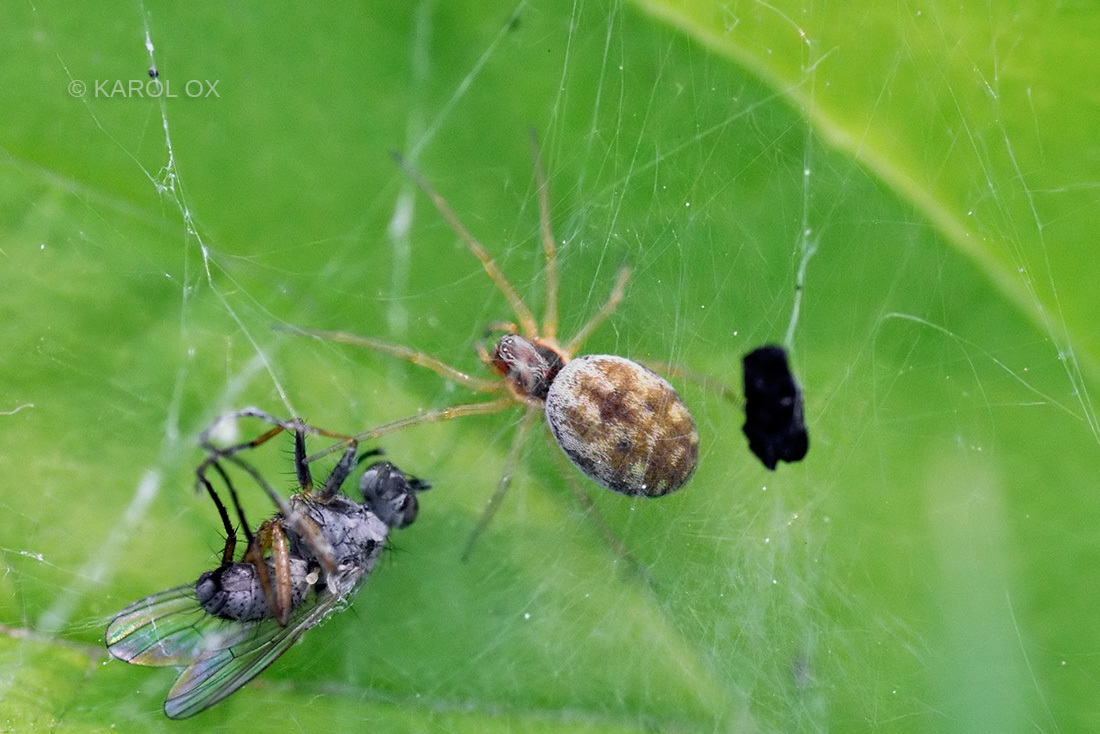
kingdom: Animalia
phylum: Arthropoda
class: Arachnida
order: Araneae
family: Dictynidae
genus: Nigma
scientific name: Nigma flavescens
